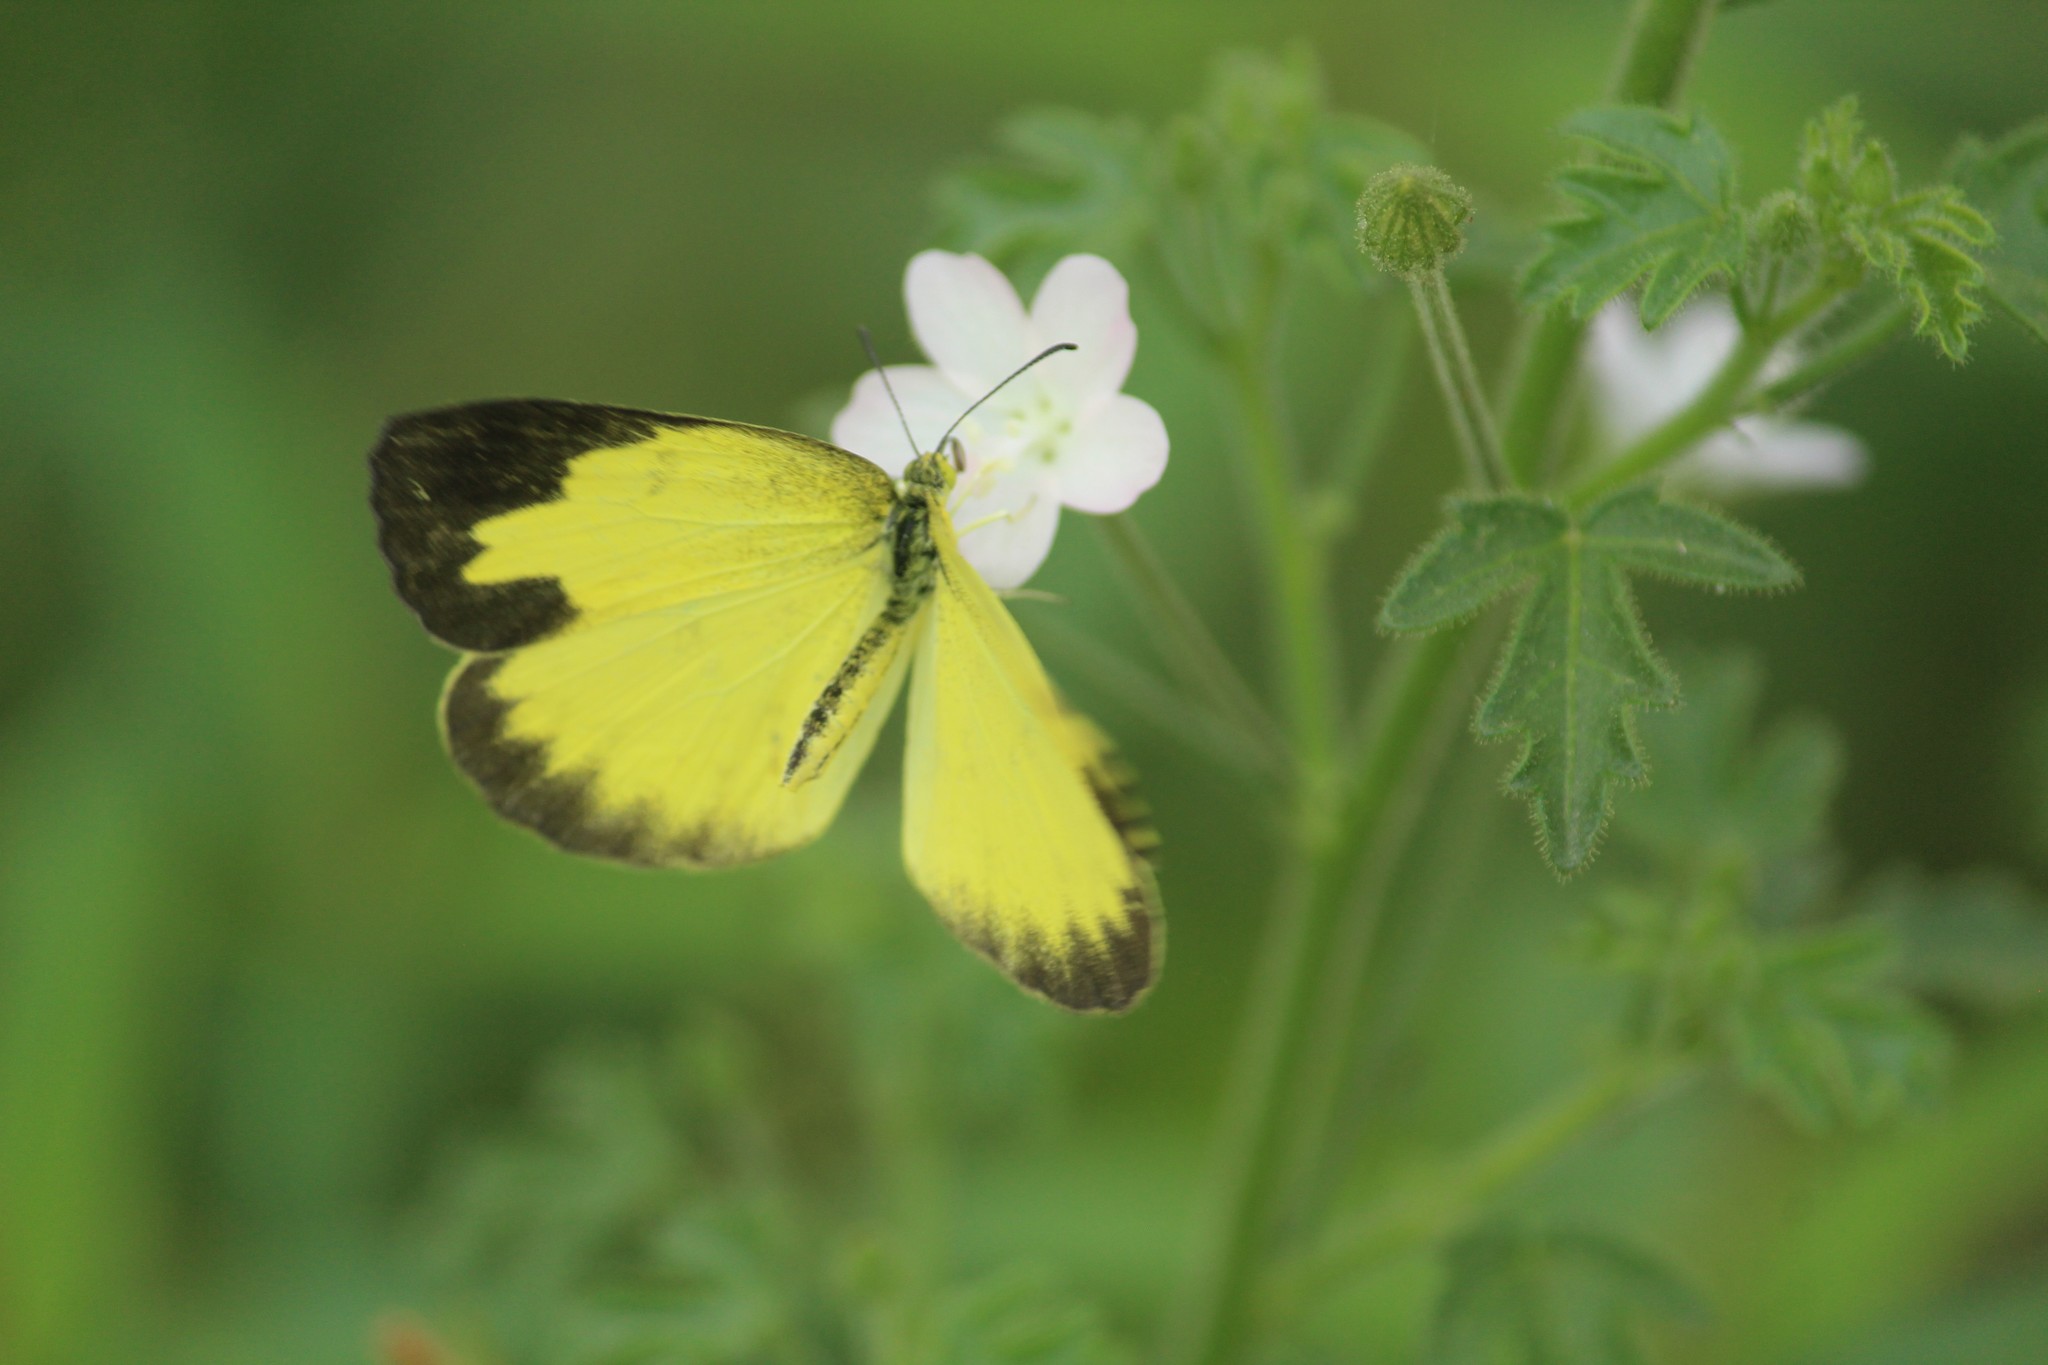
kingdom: Animalia
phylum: Arthropoda
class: Insecta
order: Lepidoptera
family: Pieridae
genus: Eurema
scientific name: Eurema blanda
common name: Three-spot grass yellow
